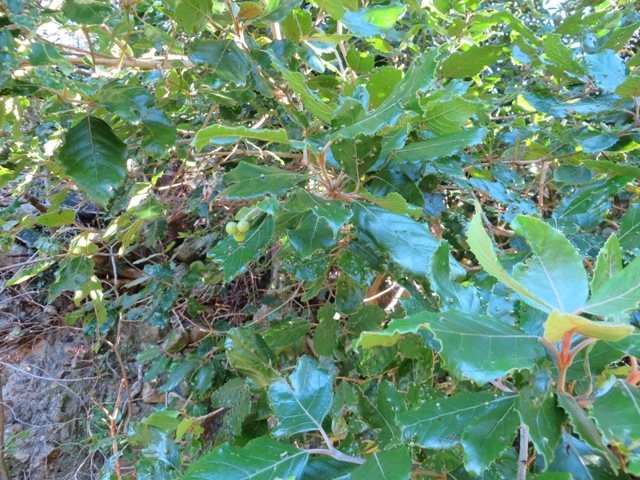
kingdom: Plantae
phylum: Tracheophyta
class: Magnoliopsida
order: Cornales
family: Curtisiaceae
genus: Curtisia
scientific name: Curtisia dentata
